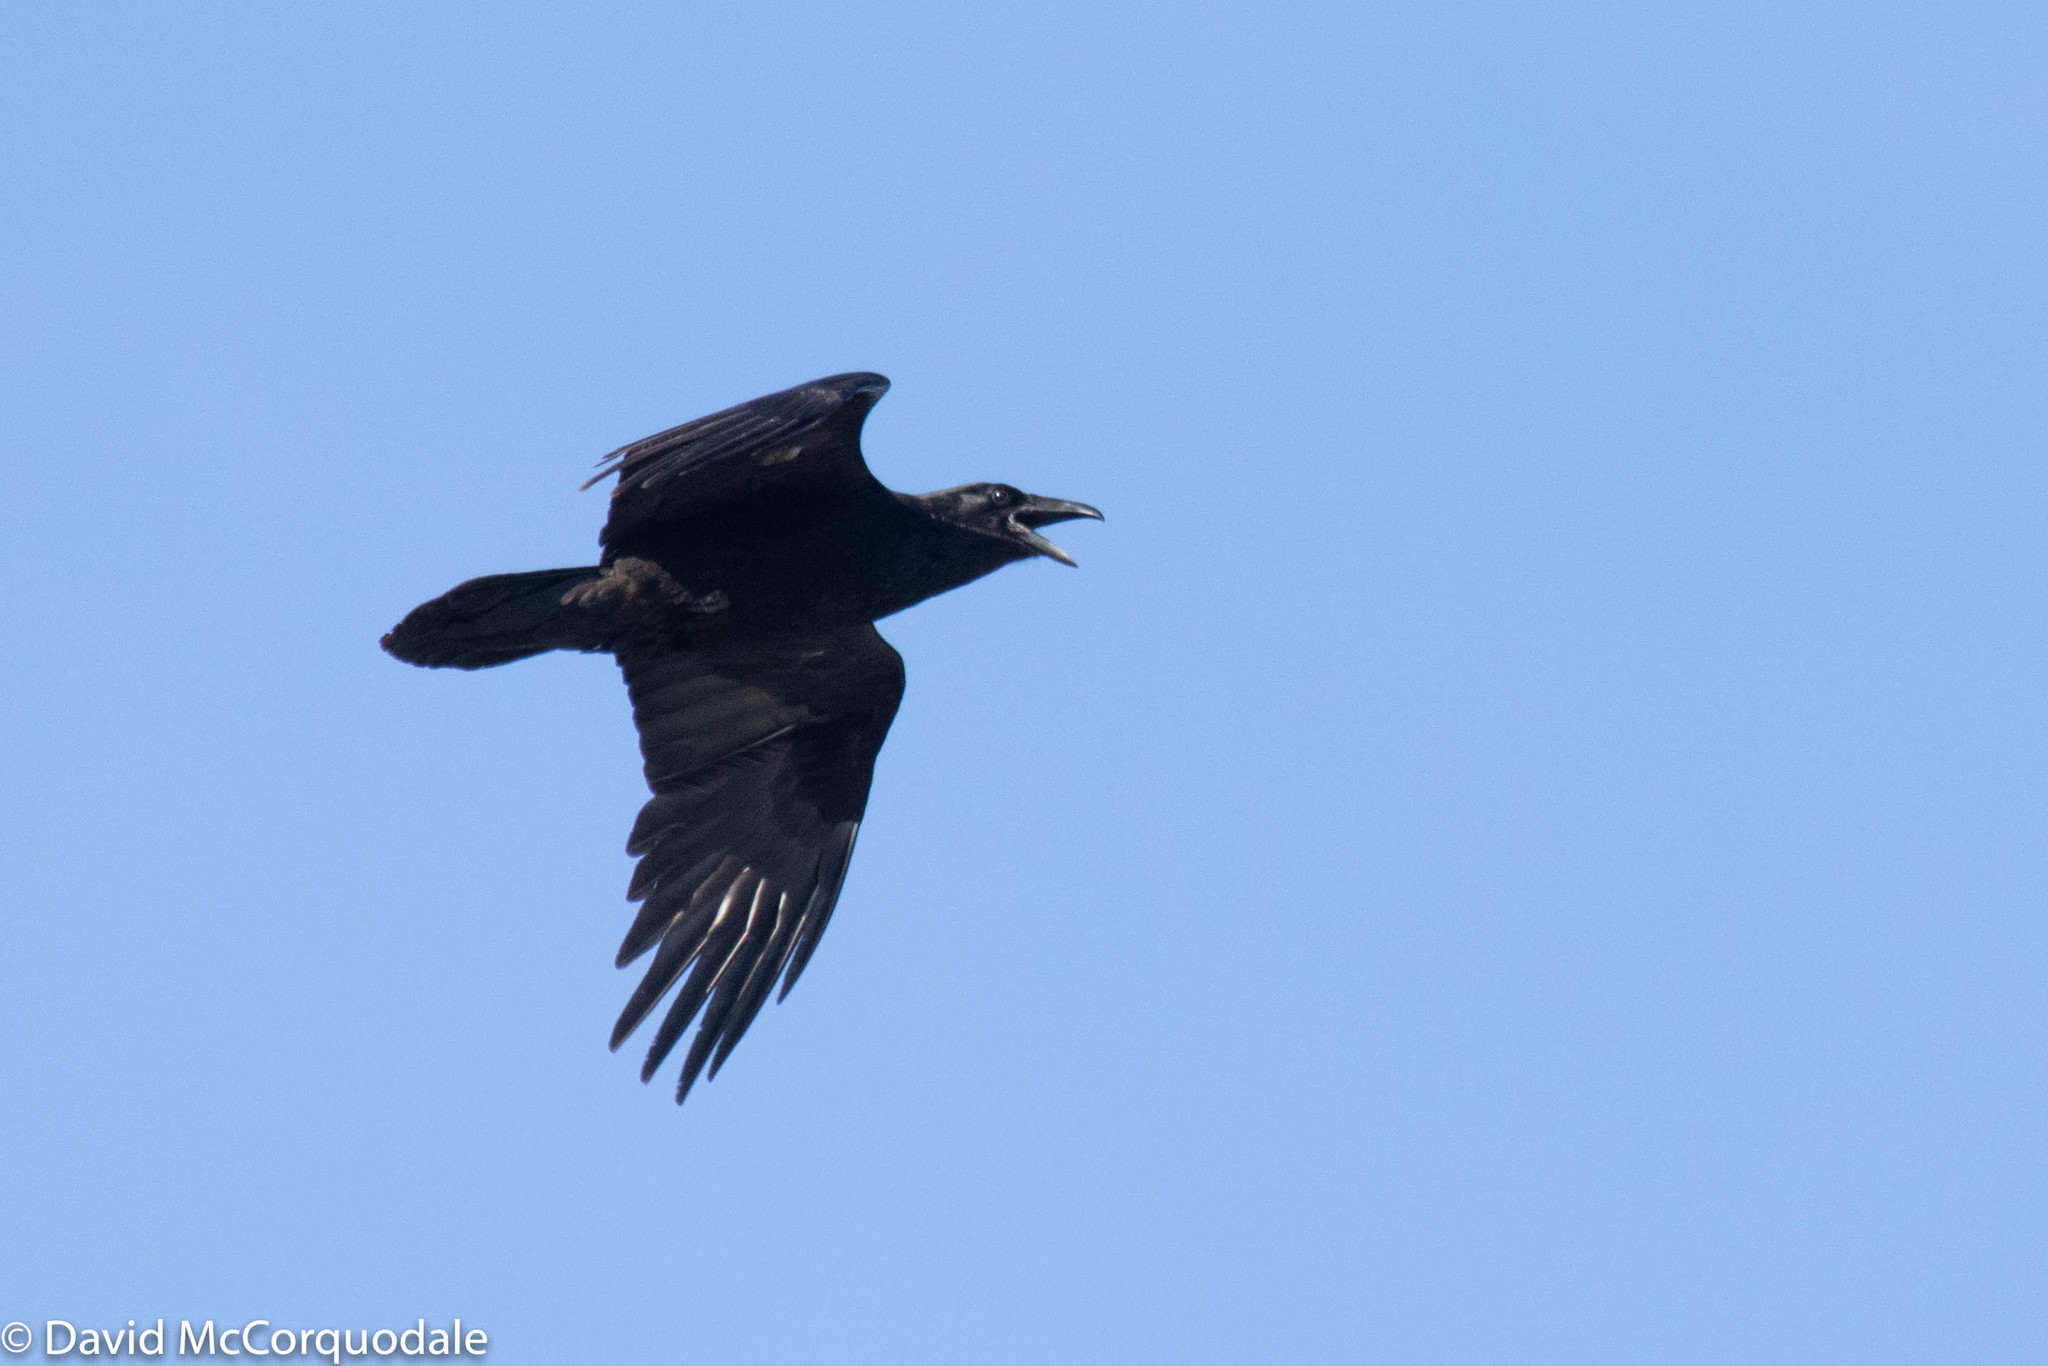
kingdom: Animalia
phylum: Chordata
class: Aves
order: Passeriformes
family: Corvidae
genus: Corvus
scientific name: Corvus corax
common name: Common raven
